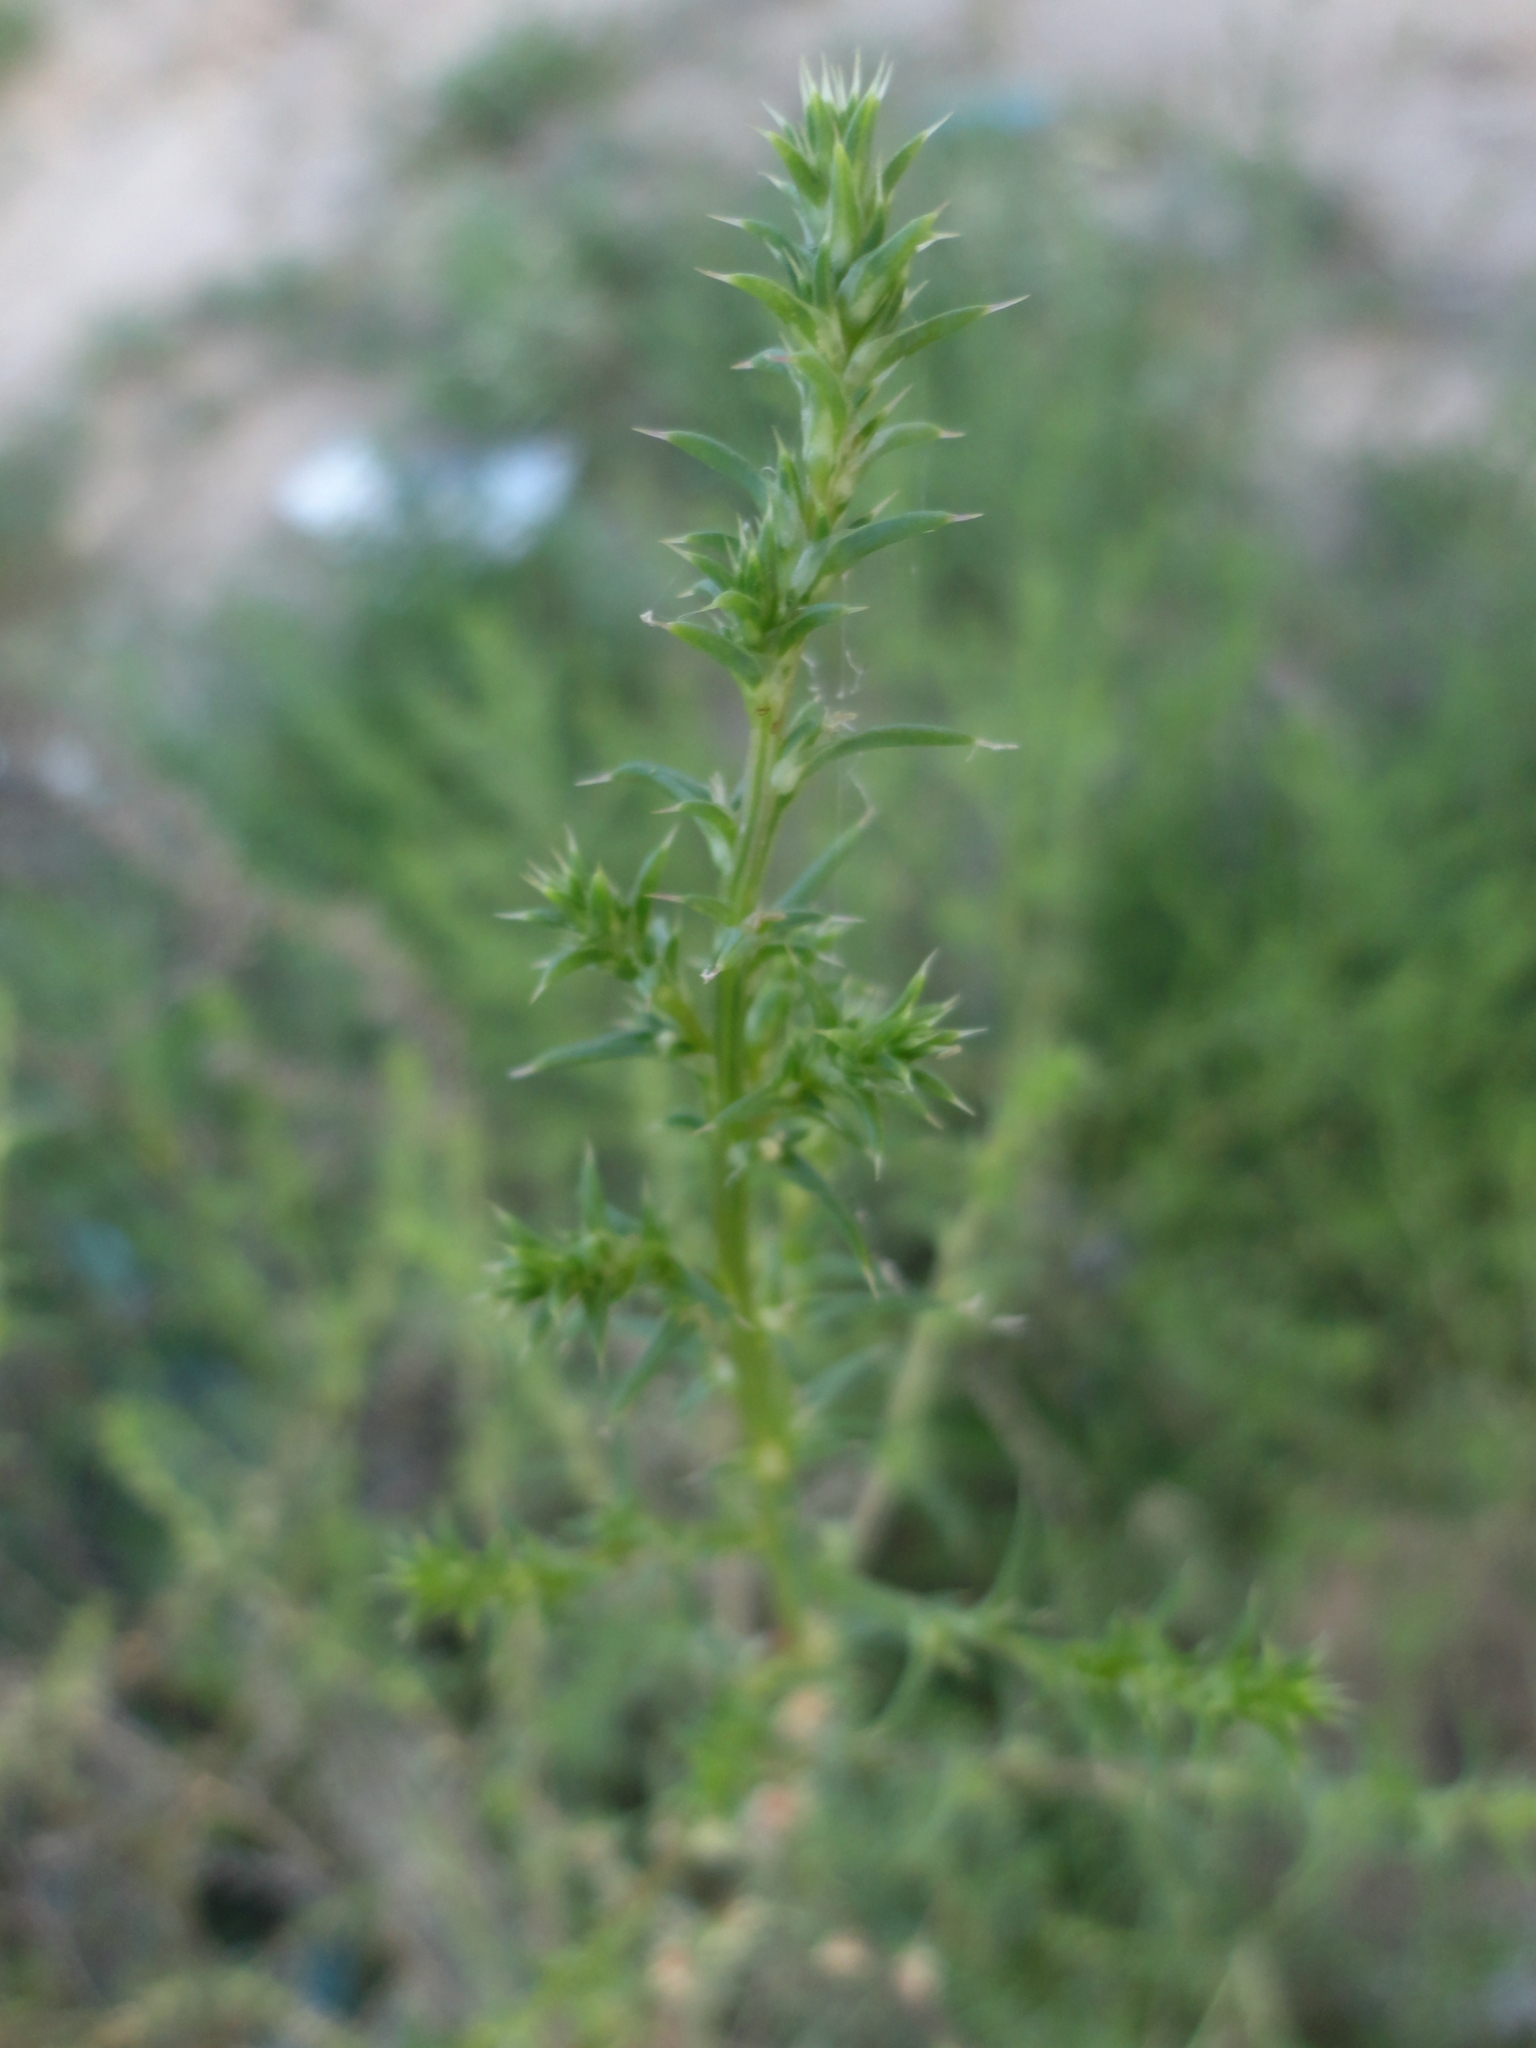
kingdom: Plantae
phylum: Tracheophyta
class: Magnoliopsida
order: Caryophyllales
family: Amaranthaceae
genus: Salsola
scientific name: Salsola kali
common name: Saltwort
